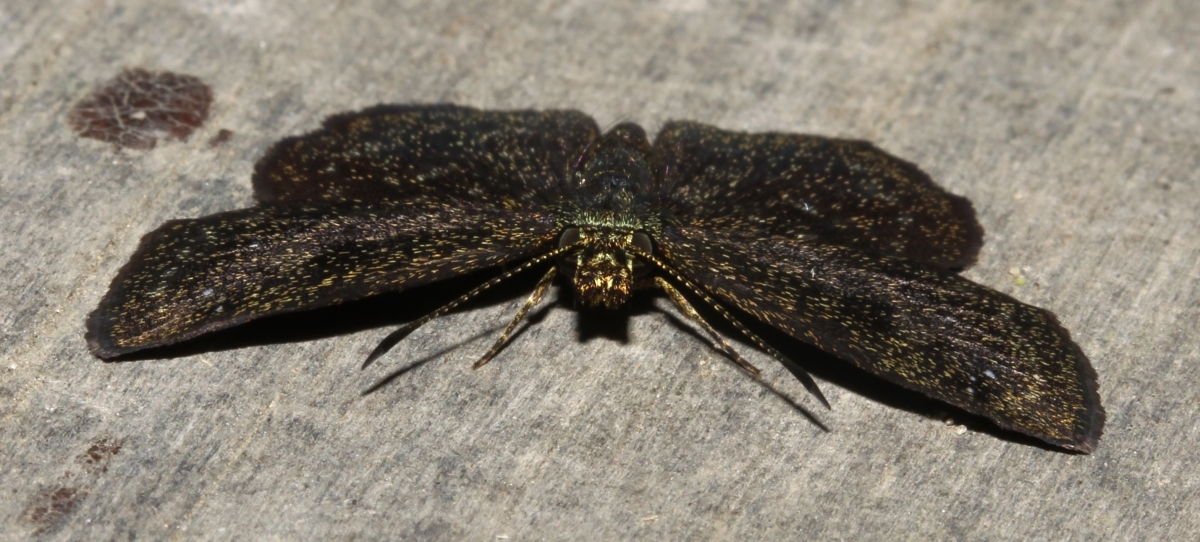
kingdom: Animalia
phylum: Arthropoda
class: Insecta
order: Lepidoptera
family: Hesperiidae
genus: Staphylus
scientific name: Staphylus minor
